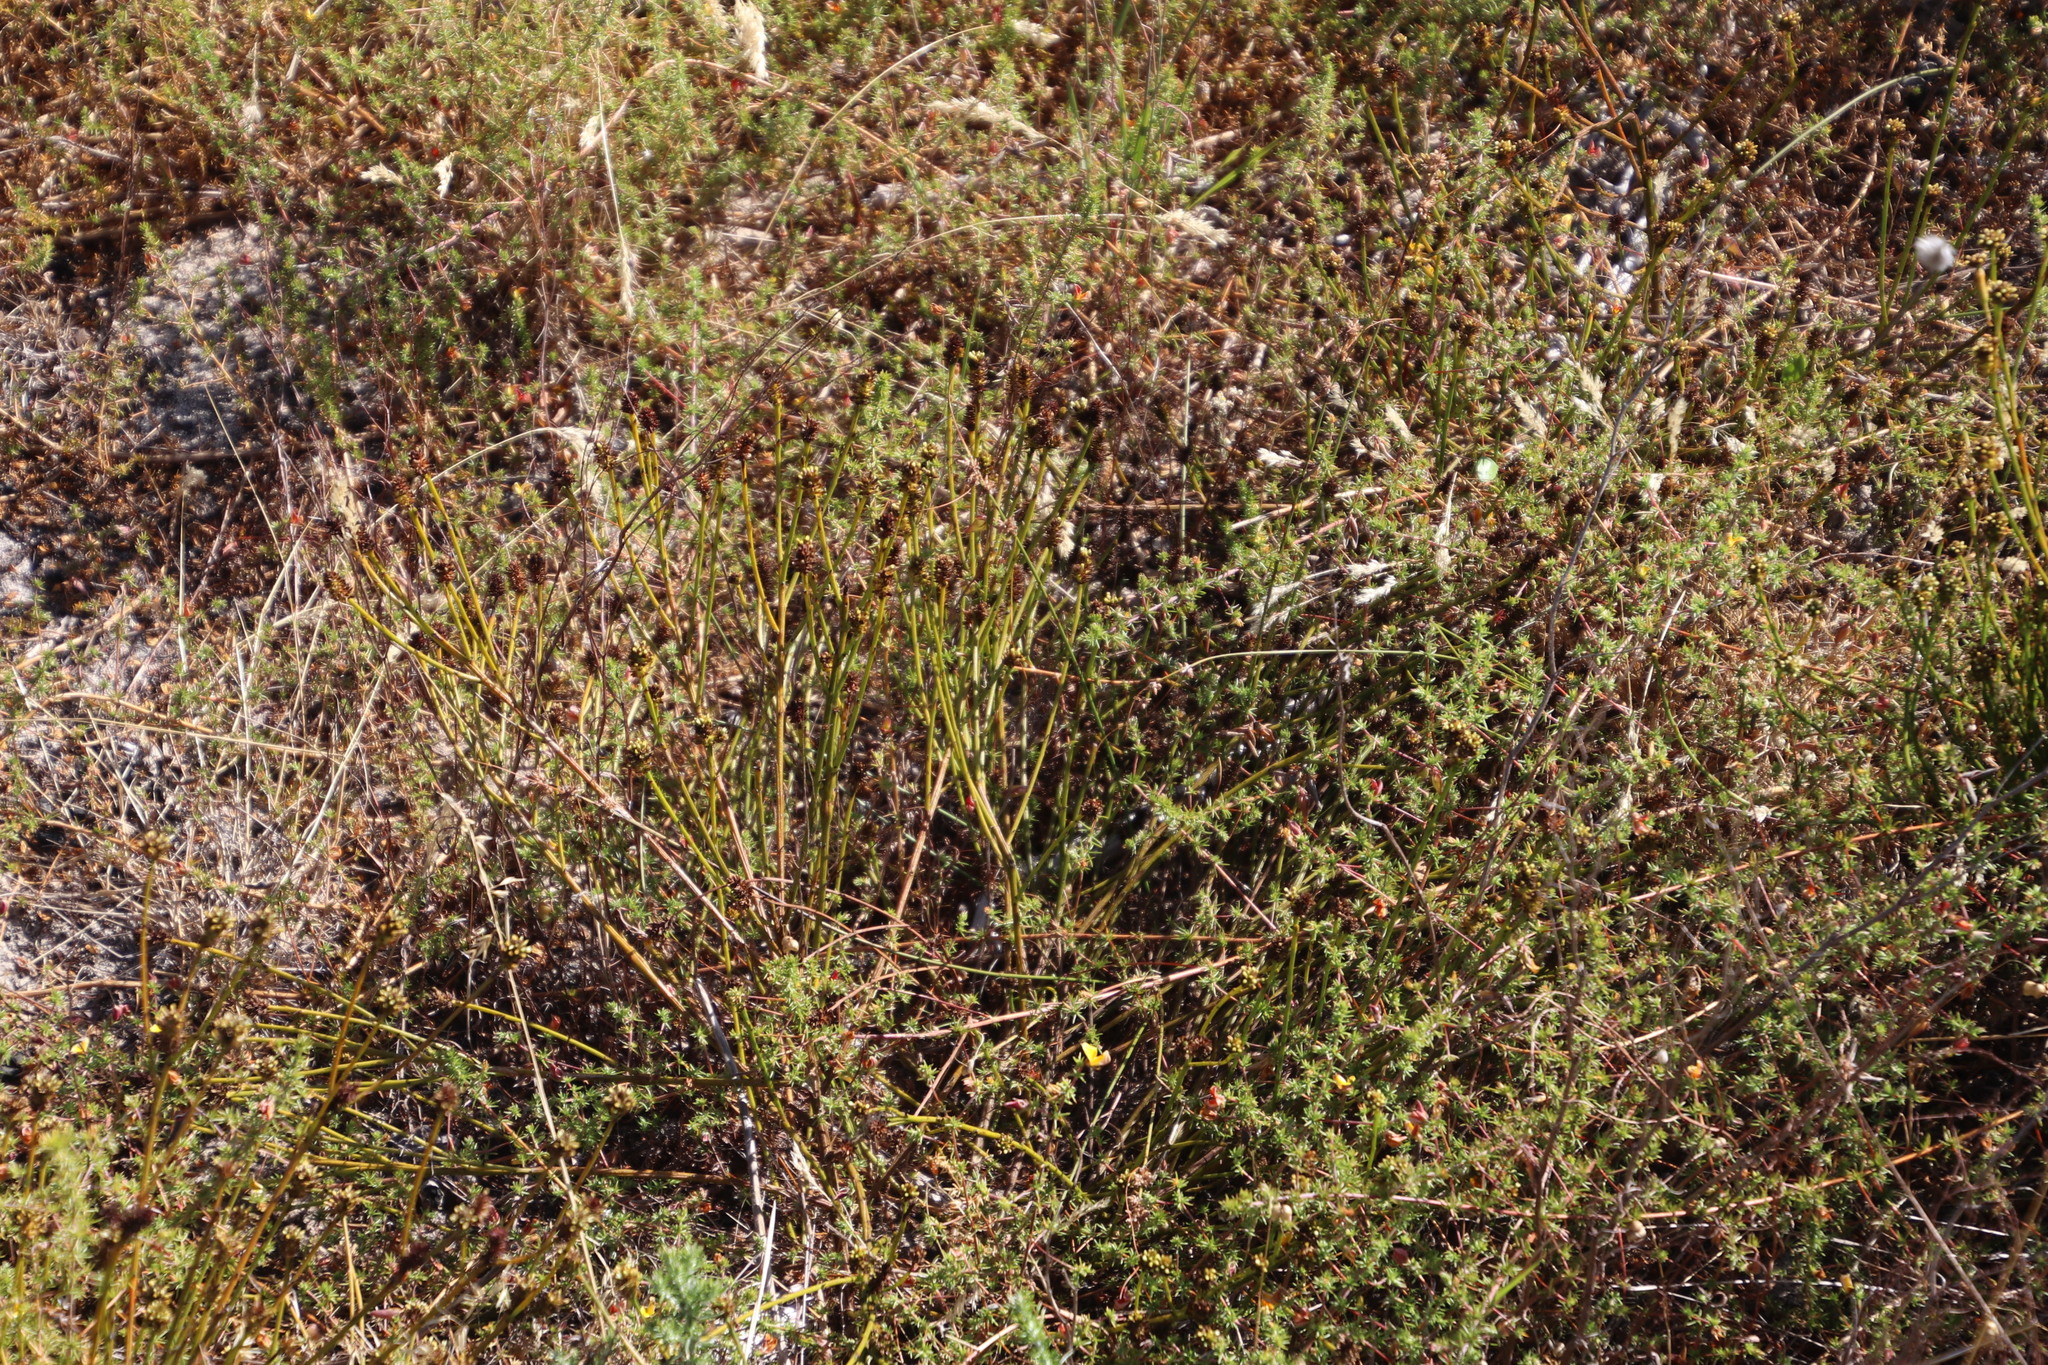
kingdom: Plantae
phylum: Tracheophyta
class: Magnoliopsida
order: Santalales
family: Thesiaceae
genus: Thesium
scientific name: Thesium aggregatum
